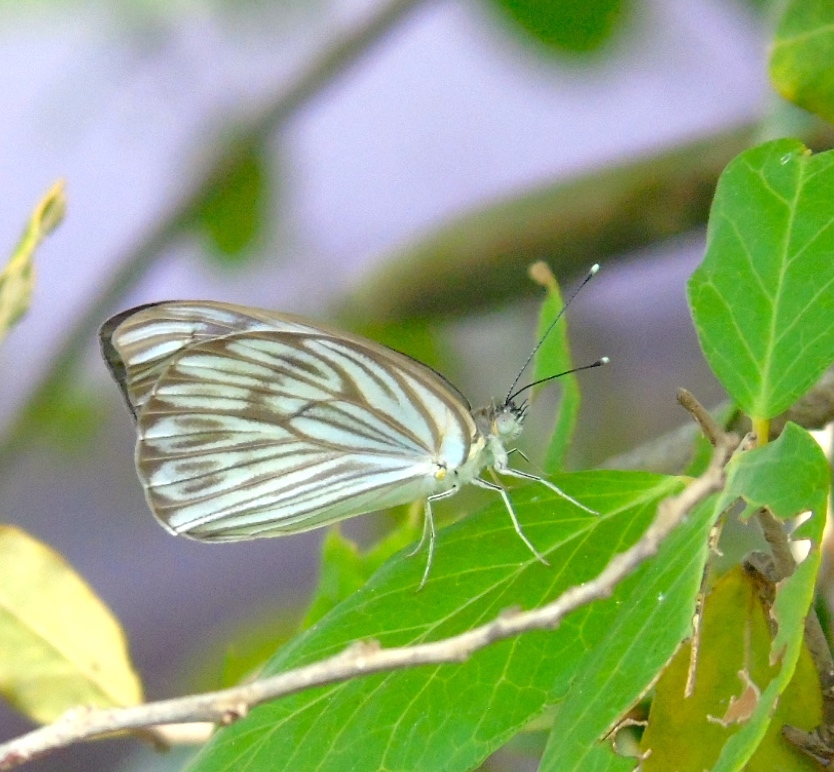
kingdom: Animalia
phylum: Arthropoda
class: Insecta
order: Lepidoptera
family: Pieridae
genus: Ascia
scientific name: Ascia monuste
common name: Great southern white
